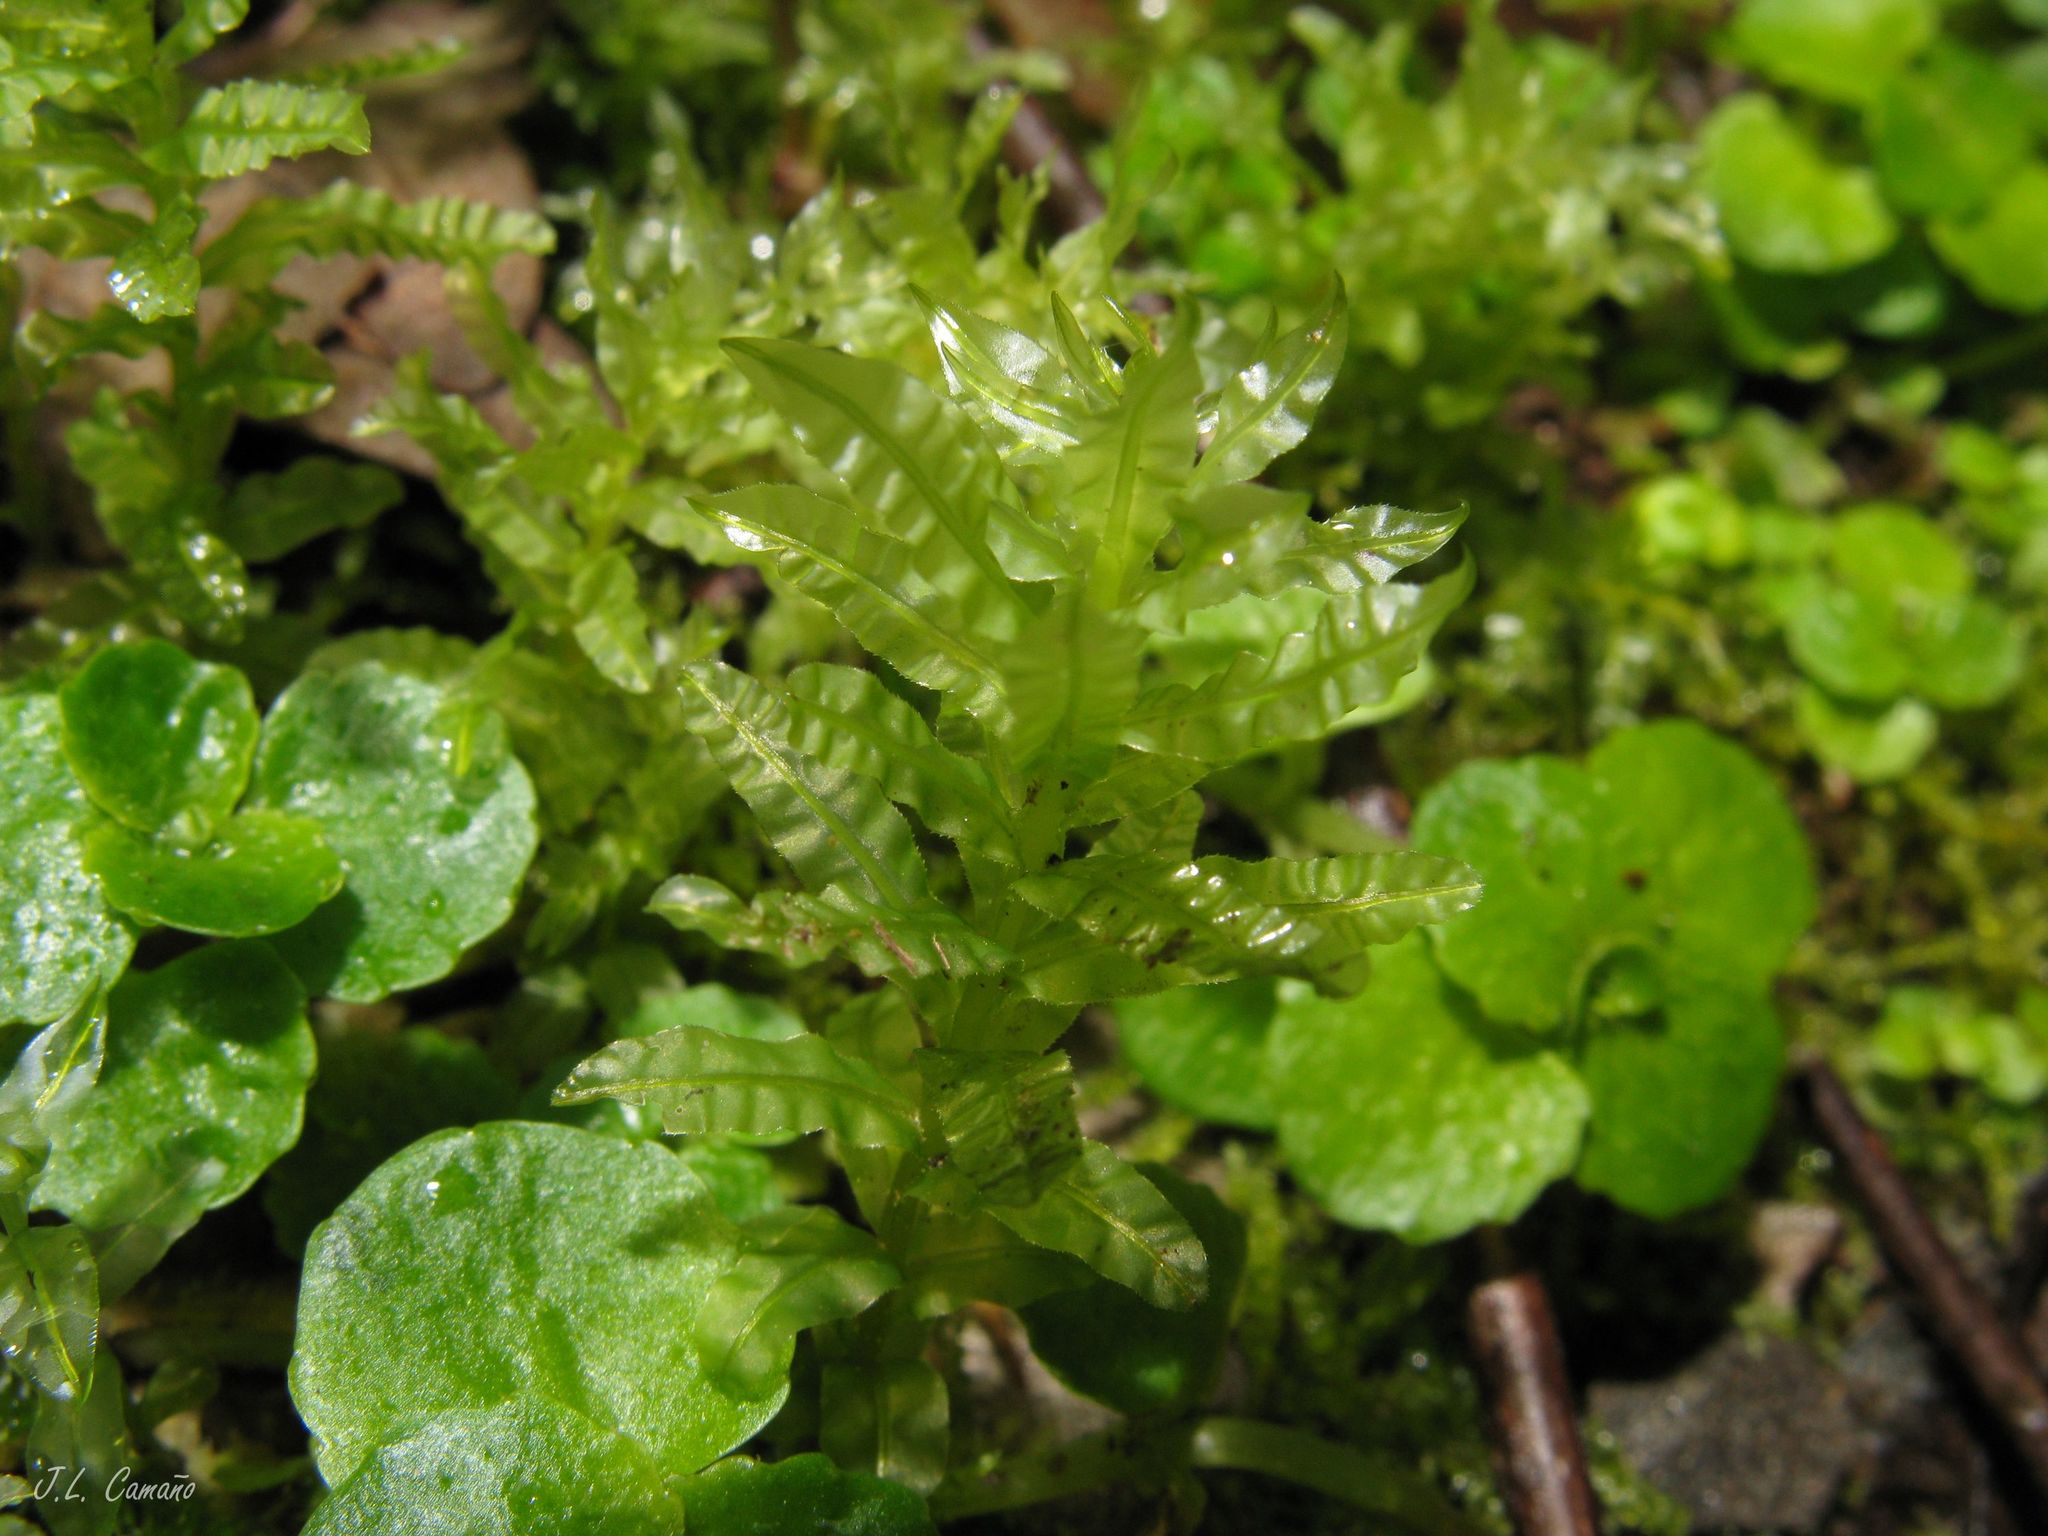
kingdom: Plantae
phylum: Bryophyta
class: Bryopsida
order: Bryales
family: Mniaceae
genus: Plagiomnium
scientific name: Plagiomnium undulatum
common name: Hart's-tongue thyme-moss
